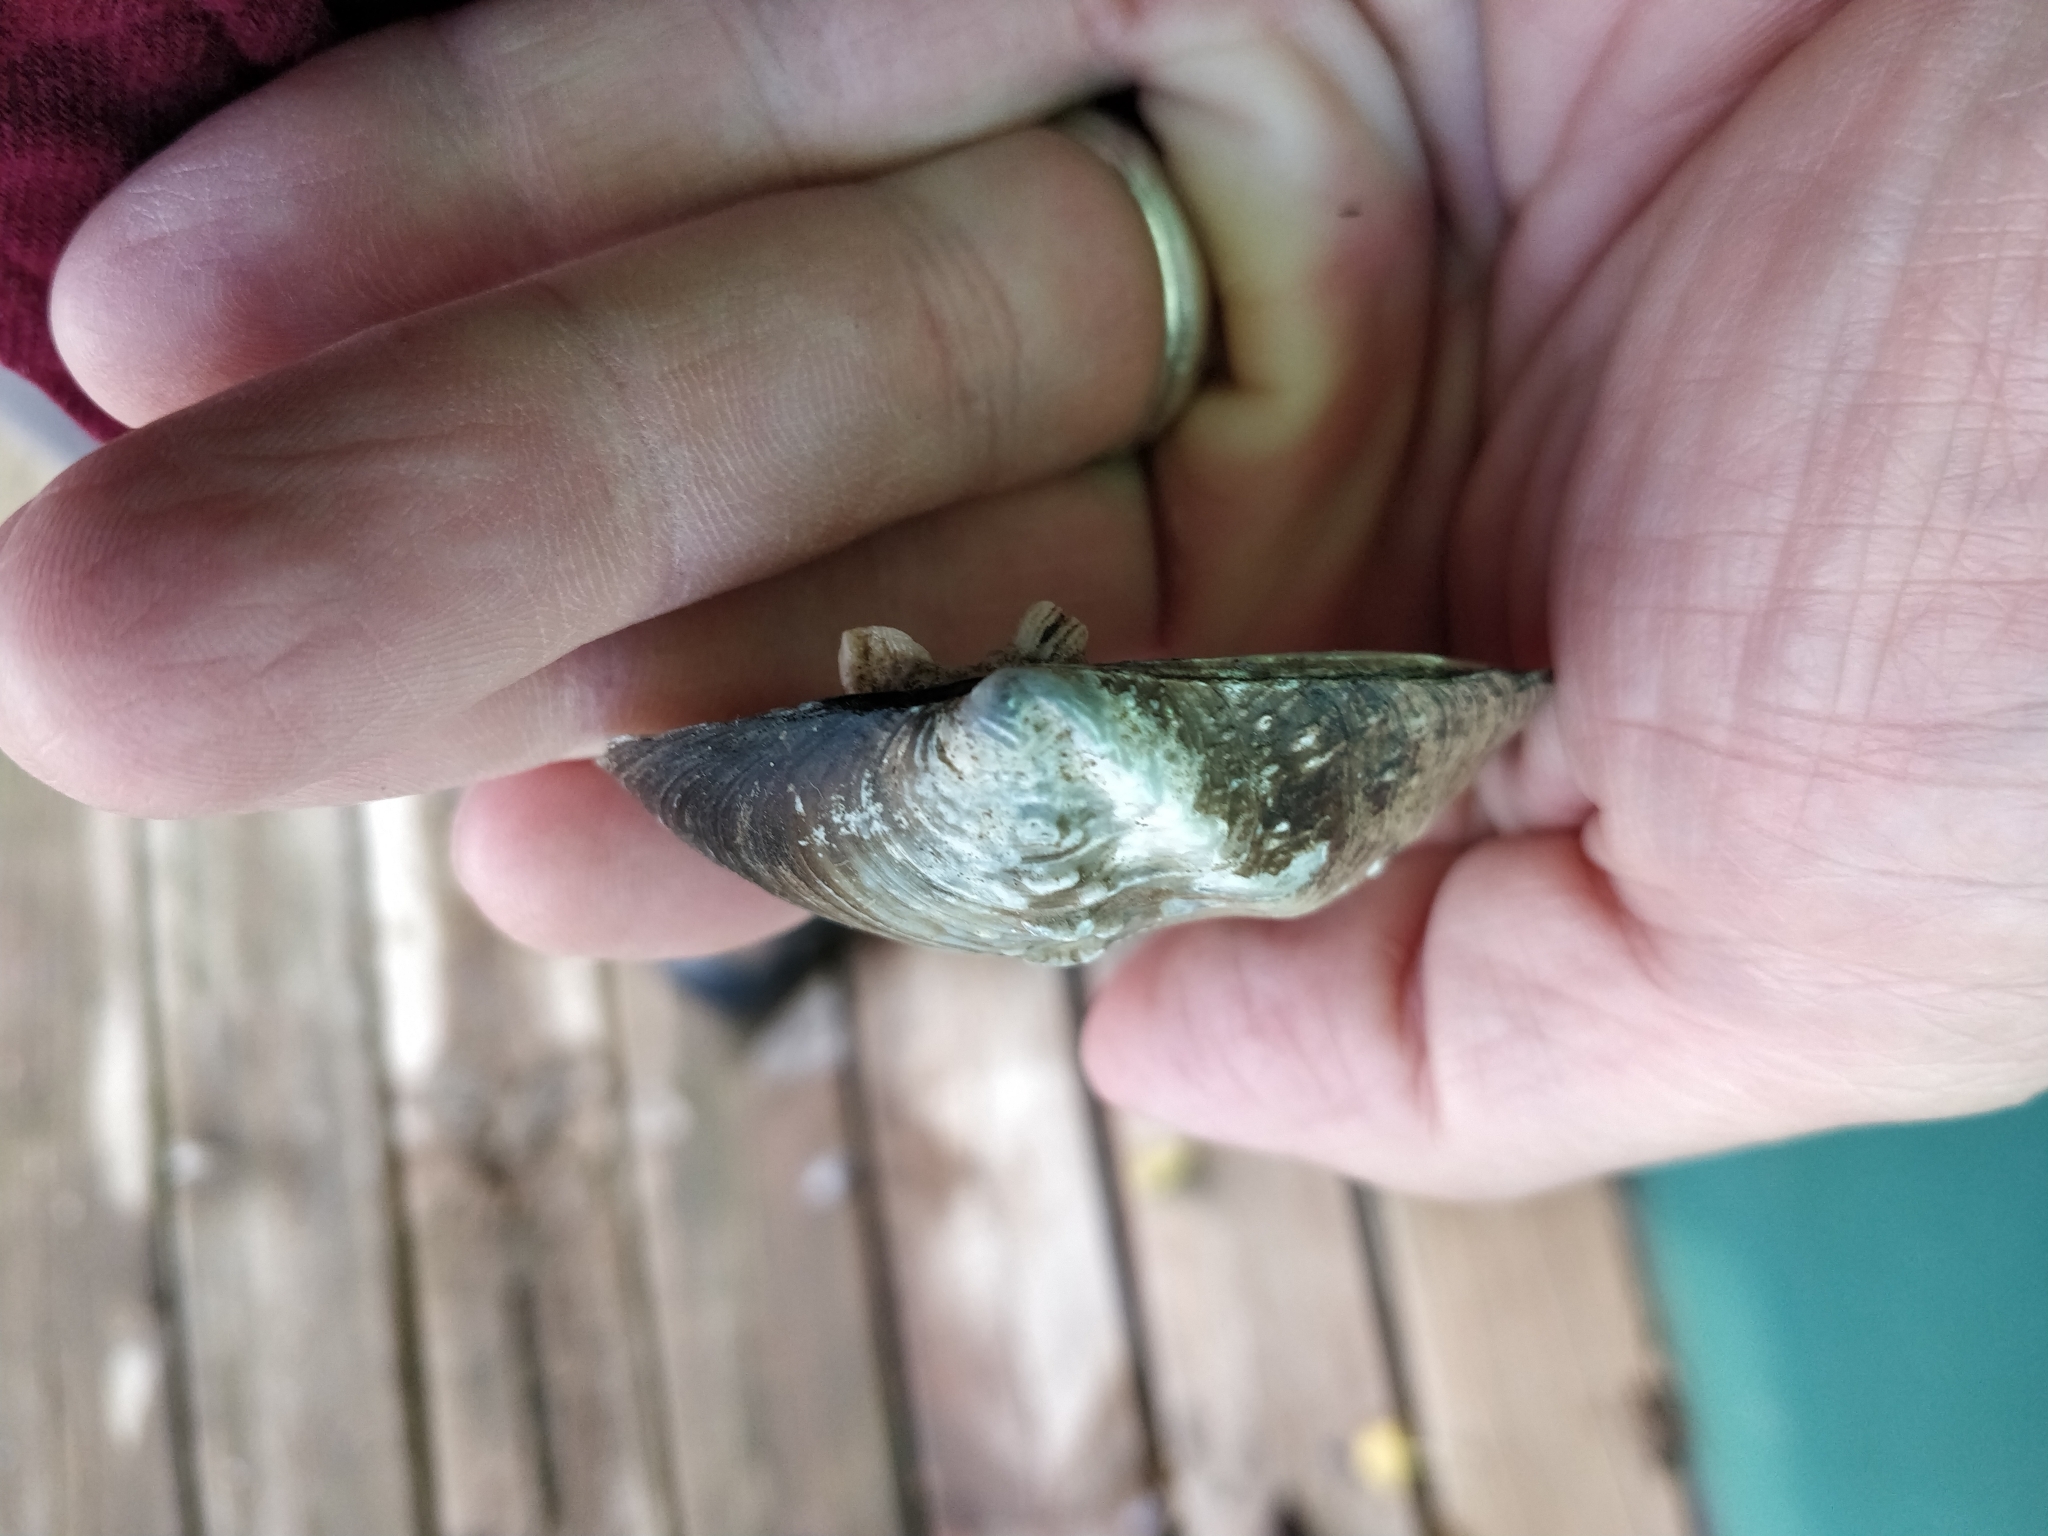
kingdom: Animalia
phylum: Mollusca
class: Bivalvia
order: Unionida
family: Unionidae
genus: Quadrula
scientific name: Quadrula quadrula
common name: Mapleleaf
